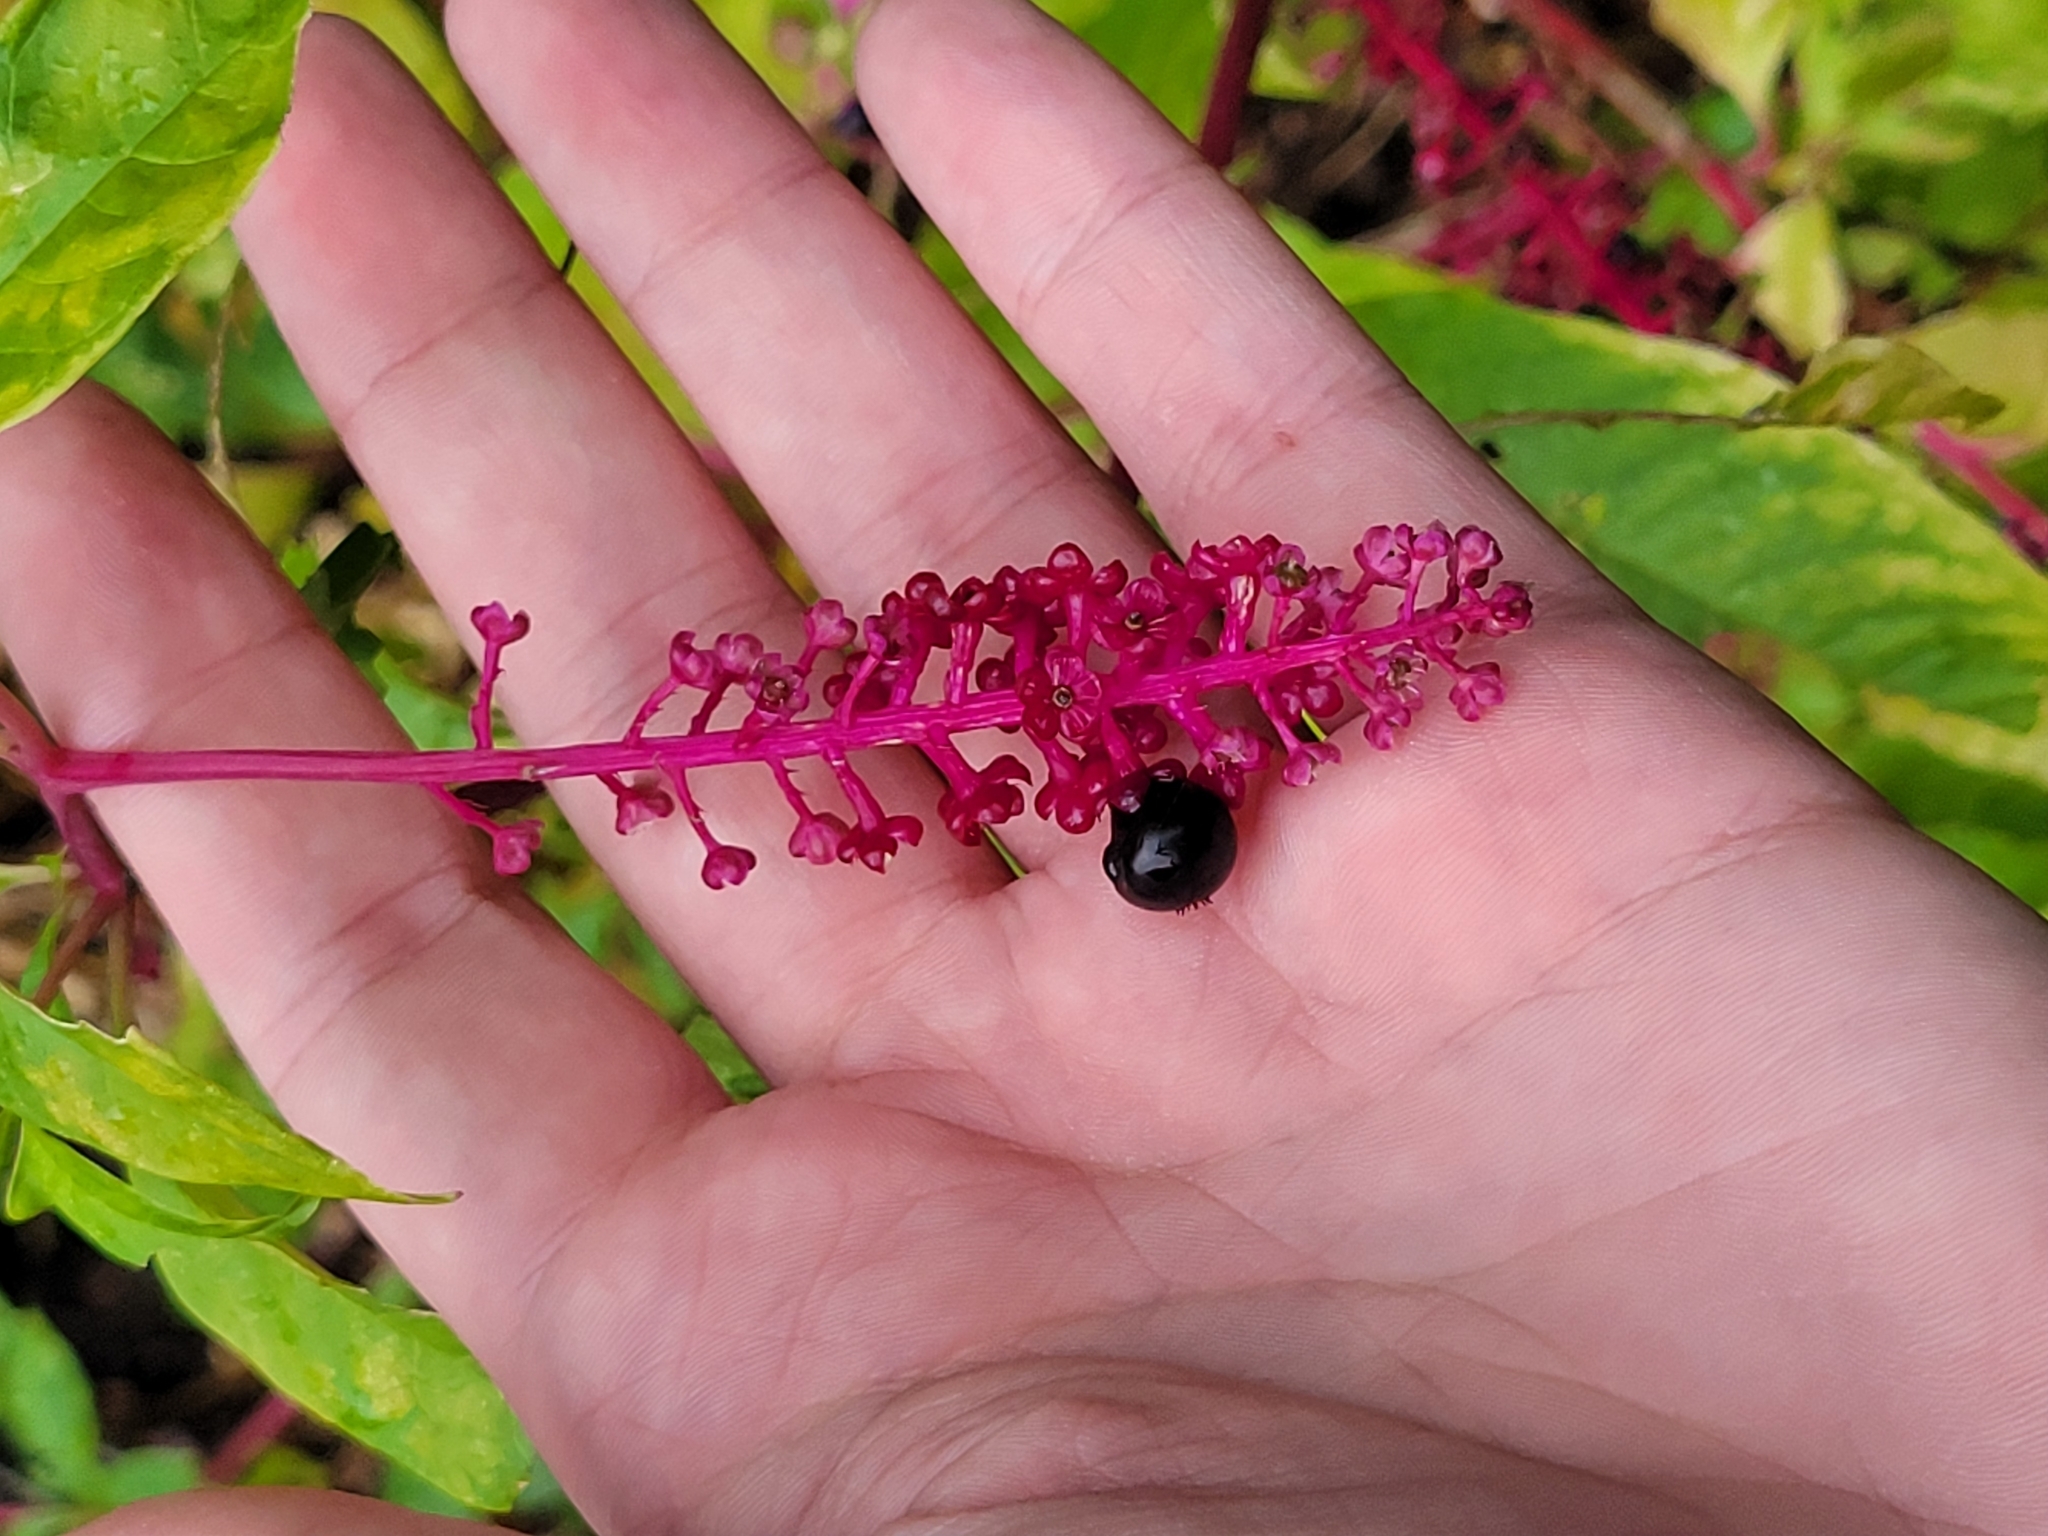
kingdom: Plantae
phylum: Tracheophyta
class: Magnoliopsida
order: Caryophyllales
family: Phytolaccaceae
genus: Phytolacca
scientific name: Phytolacca americana
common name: American pokeweed
